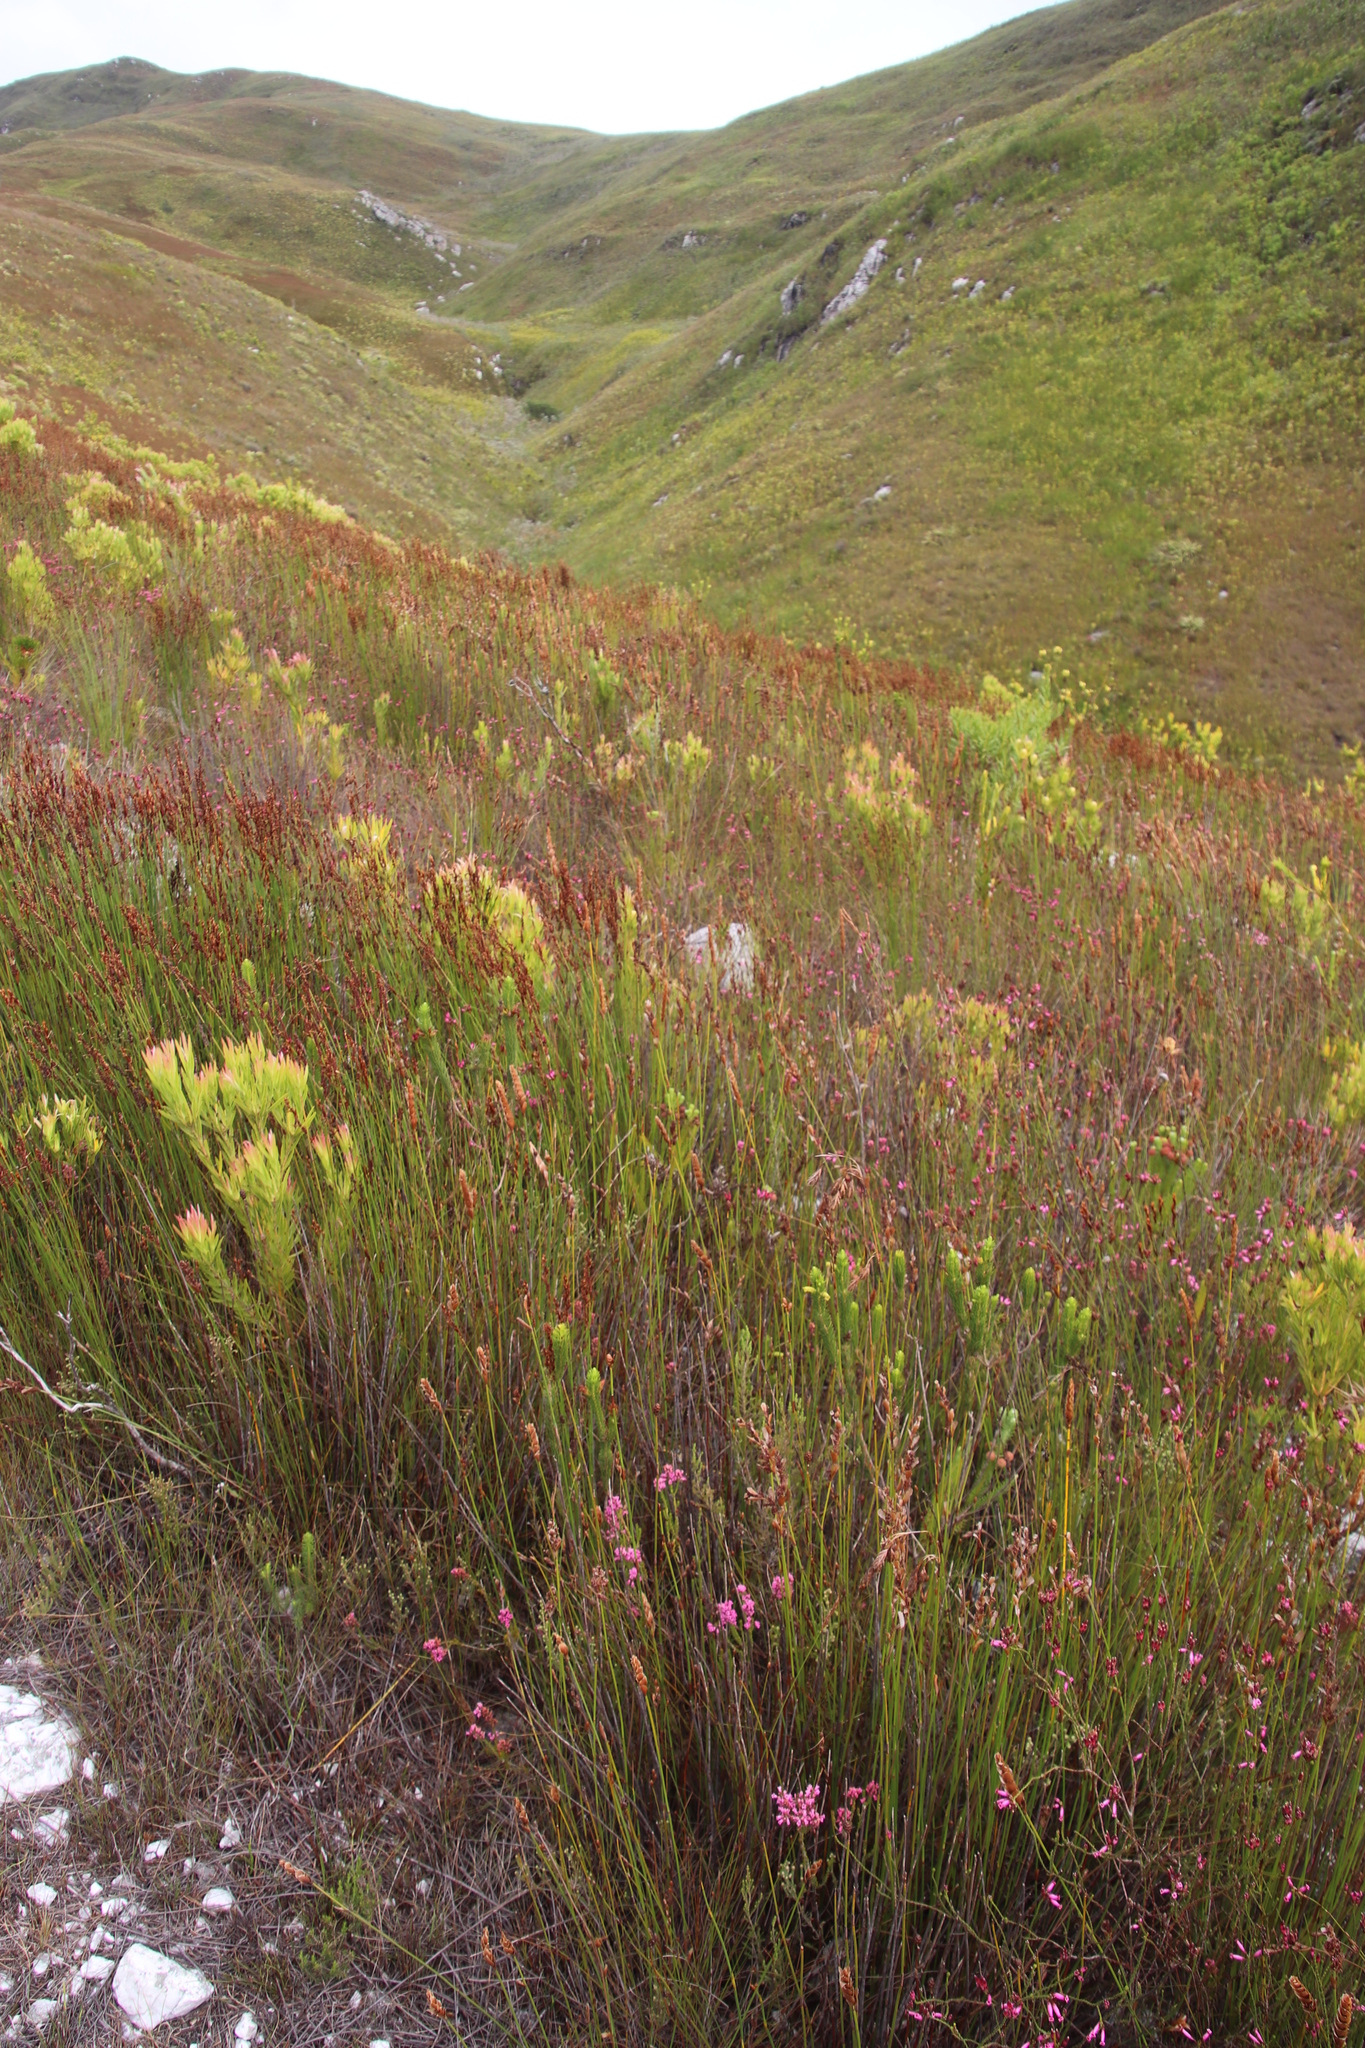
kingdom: Plantae
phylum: Tracheophyta
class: Magnoliopsida
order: Ericales
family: Ericaceae
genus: Erica
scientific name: Erica viscaria
